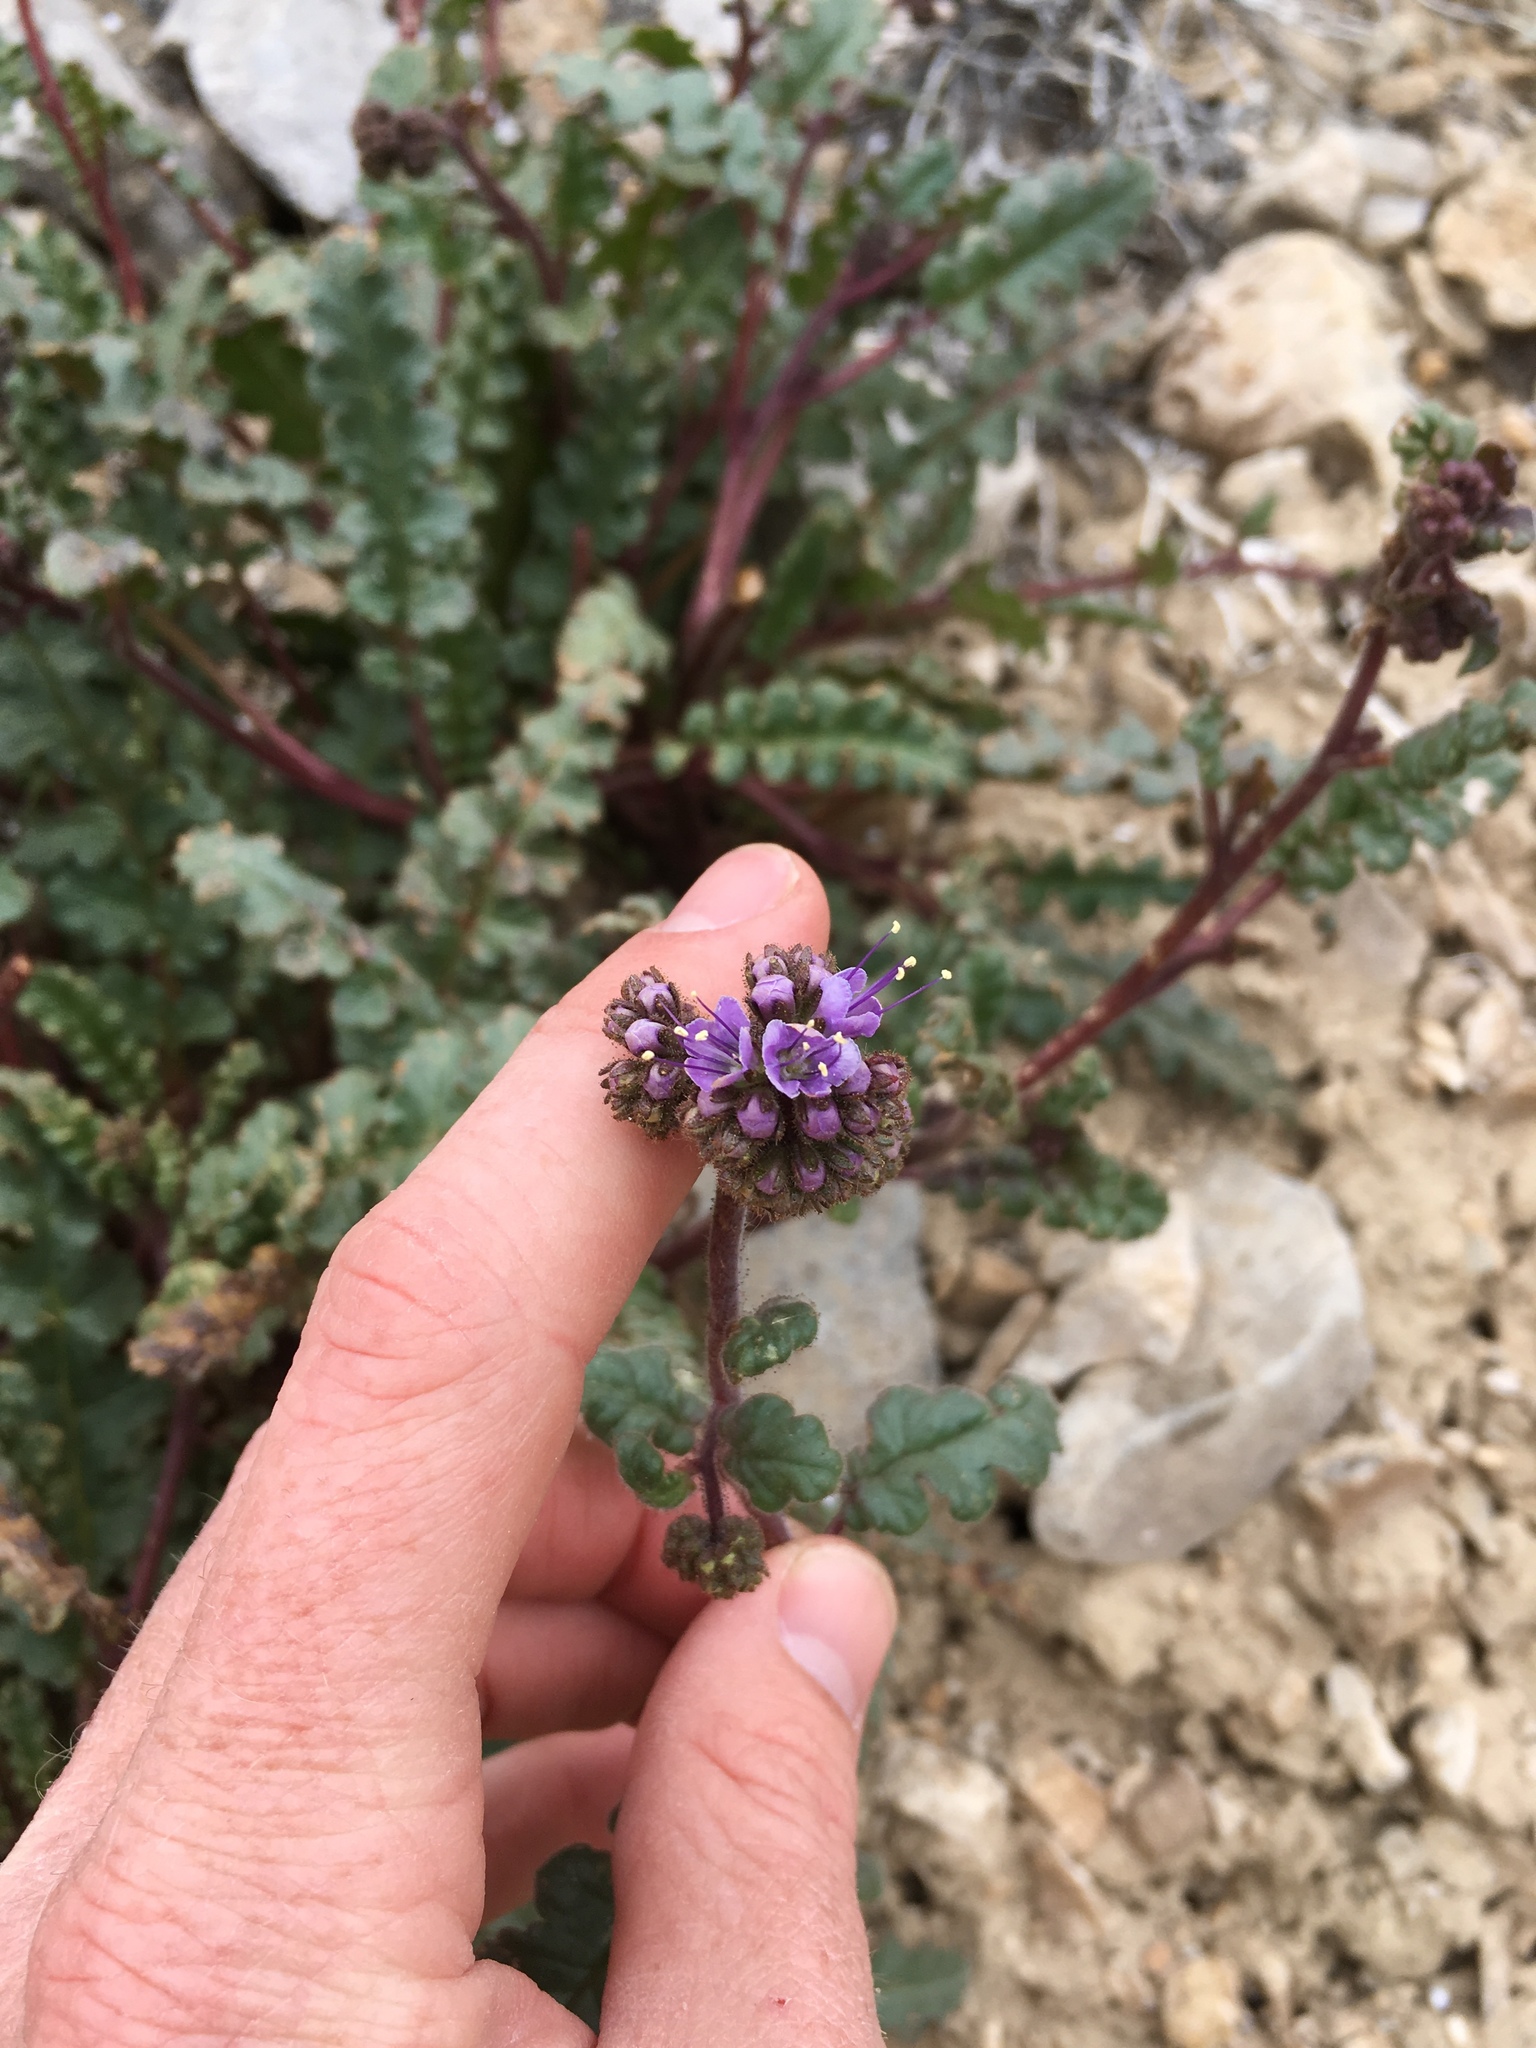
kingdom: Plantae
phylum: Tracheophyta
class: Magnoliopsida
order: Boraginales
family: Hydrophyllaceae
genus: Phacelia
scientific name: Phacelia crenulata
